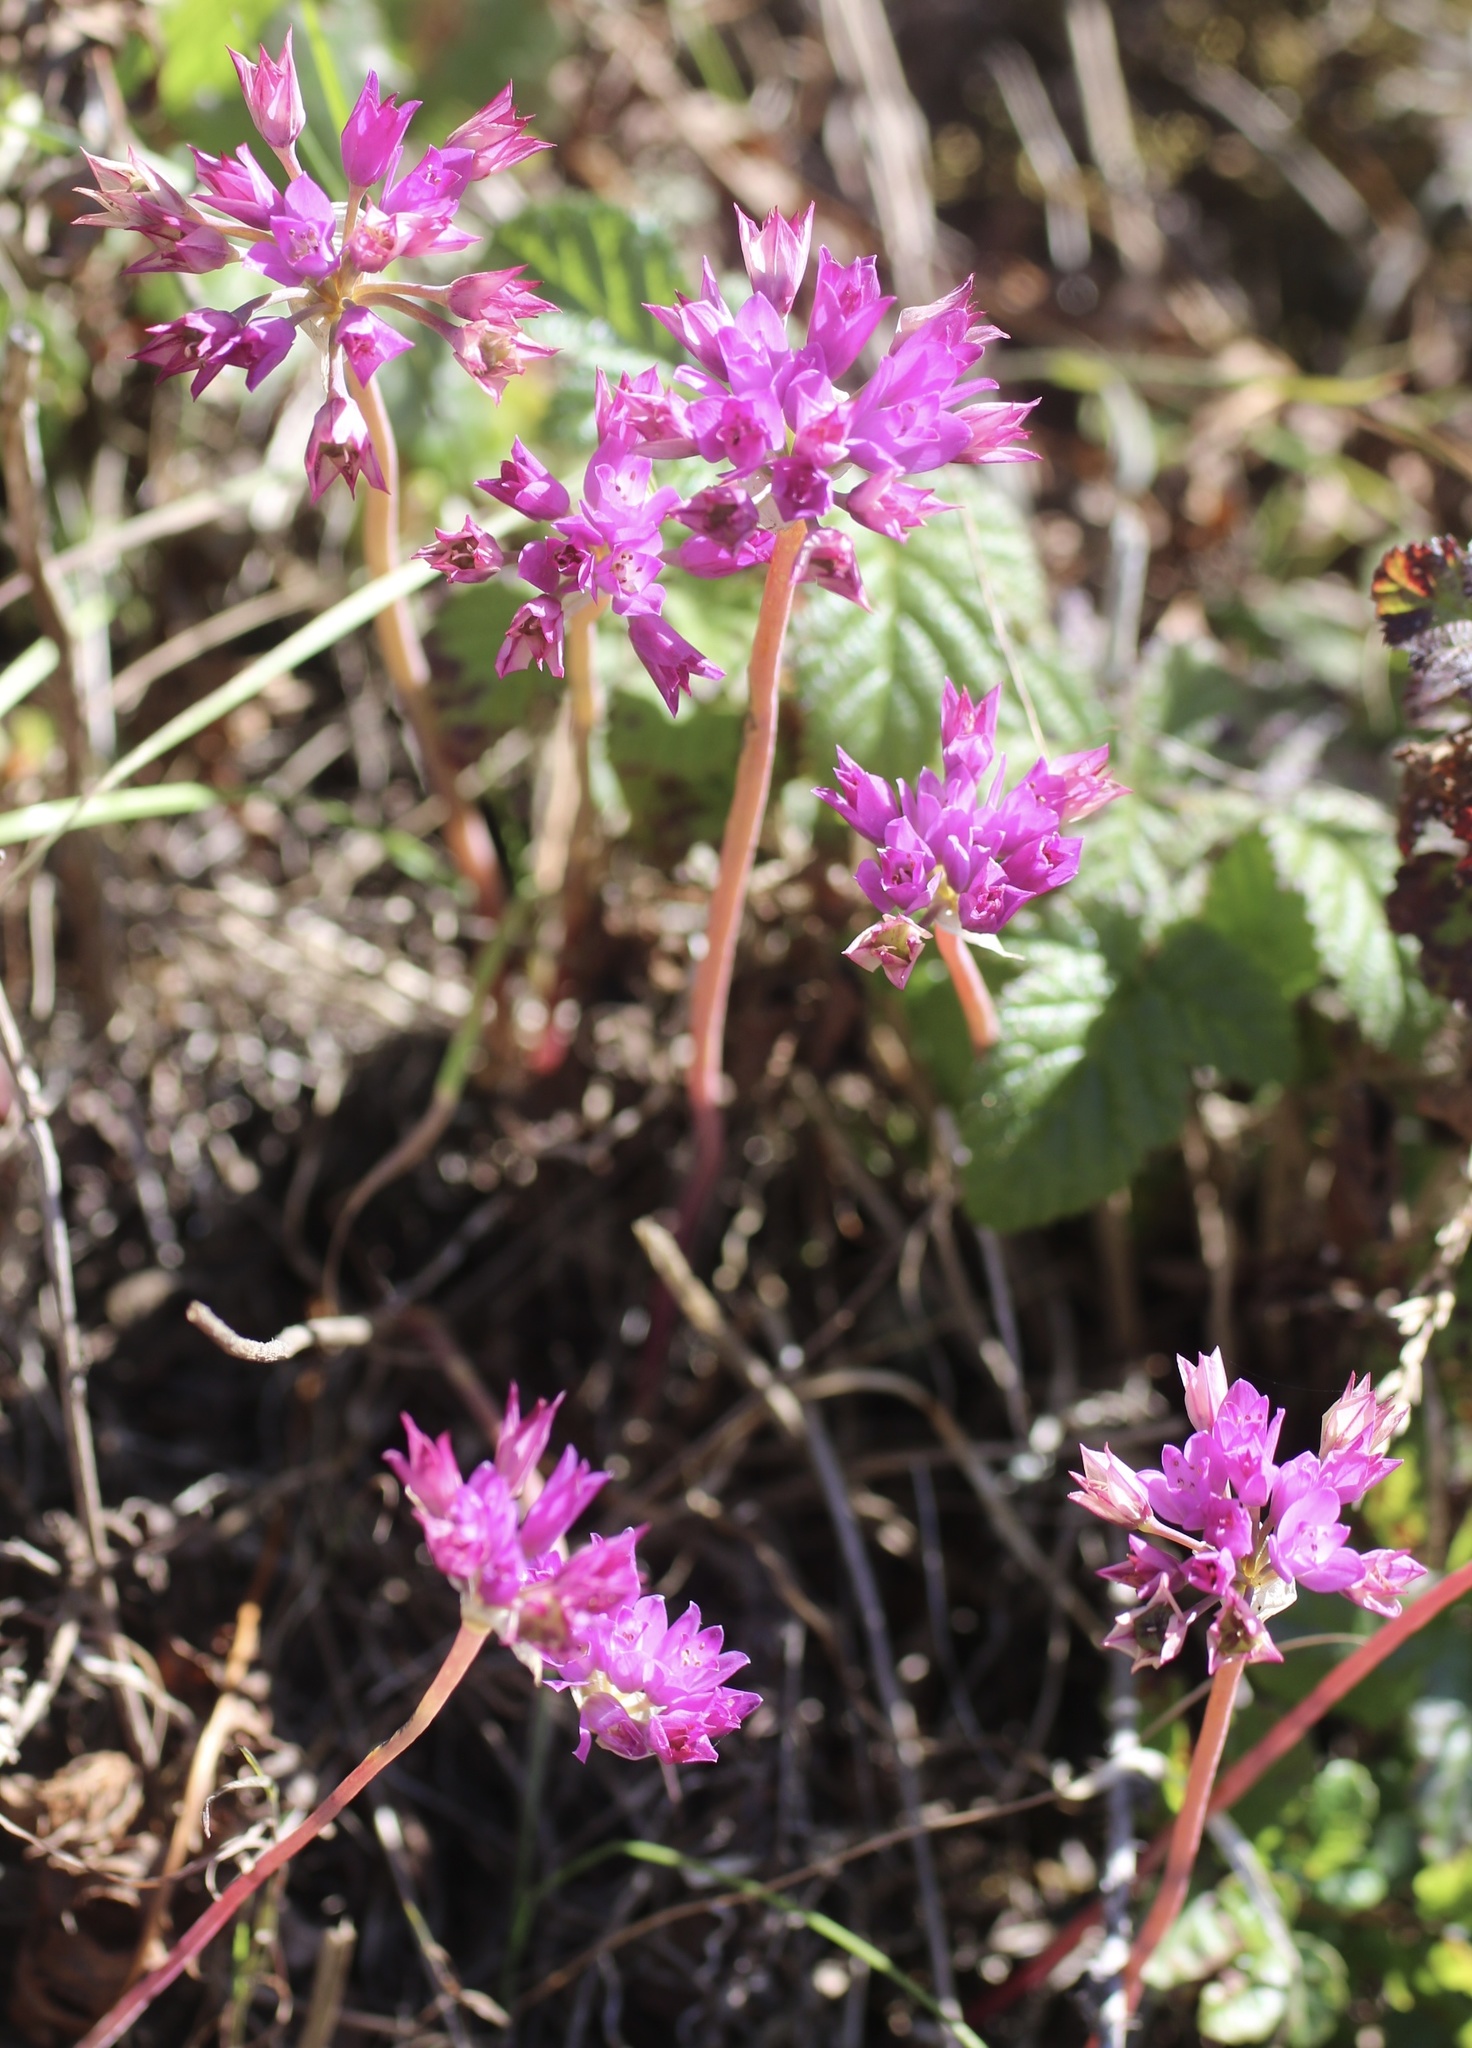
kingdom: Plantae
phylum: Tracheophyta
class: Liliopsida
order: Asparagales
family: Amaryllidaceae
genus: Allium
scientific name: Allium dichlamydeum
